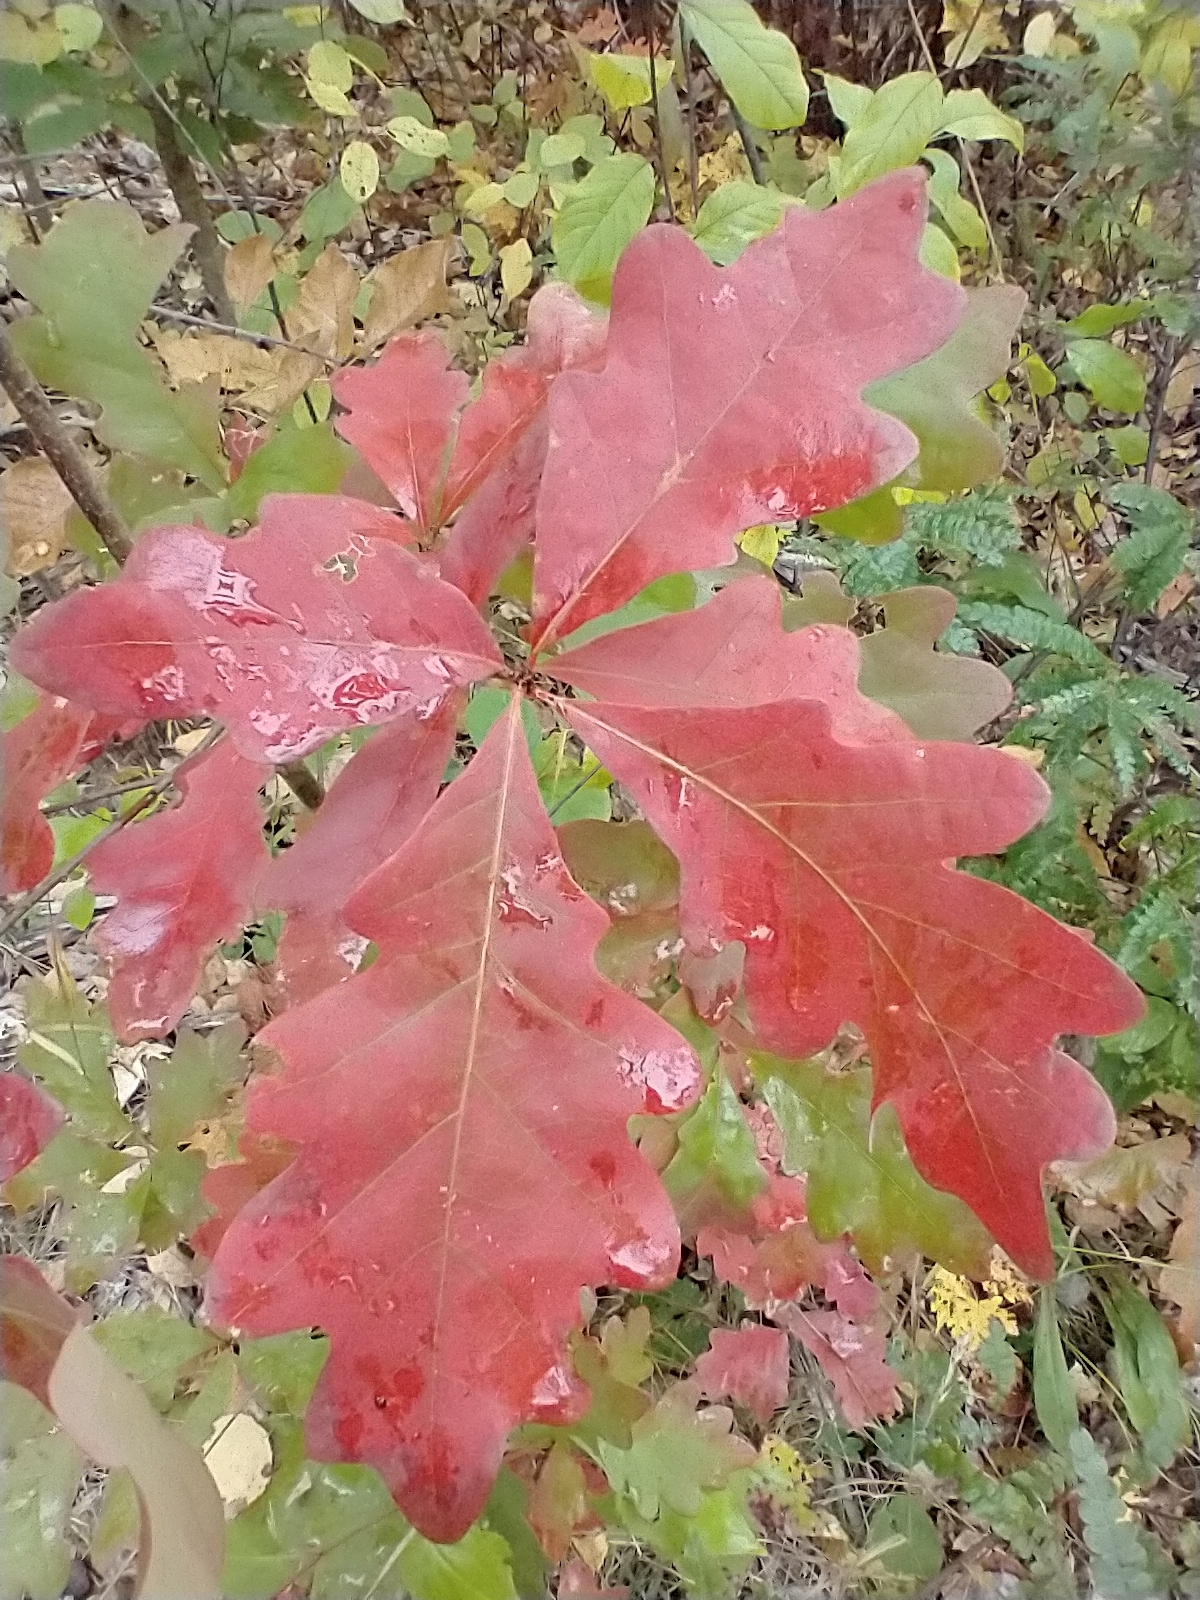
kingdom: Plantae
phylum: Tracheophyta
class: Magnoliopsida
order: Fagales
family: Fagaceae
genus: Quercus
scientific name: Quercus alba
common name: White oak
